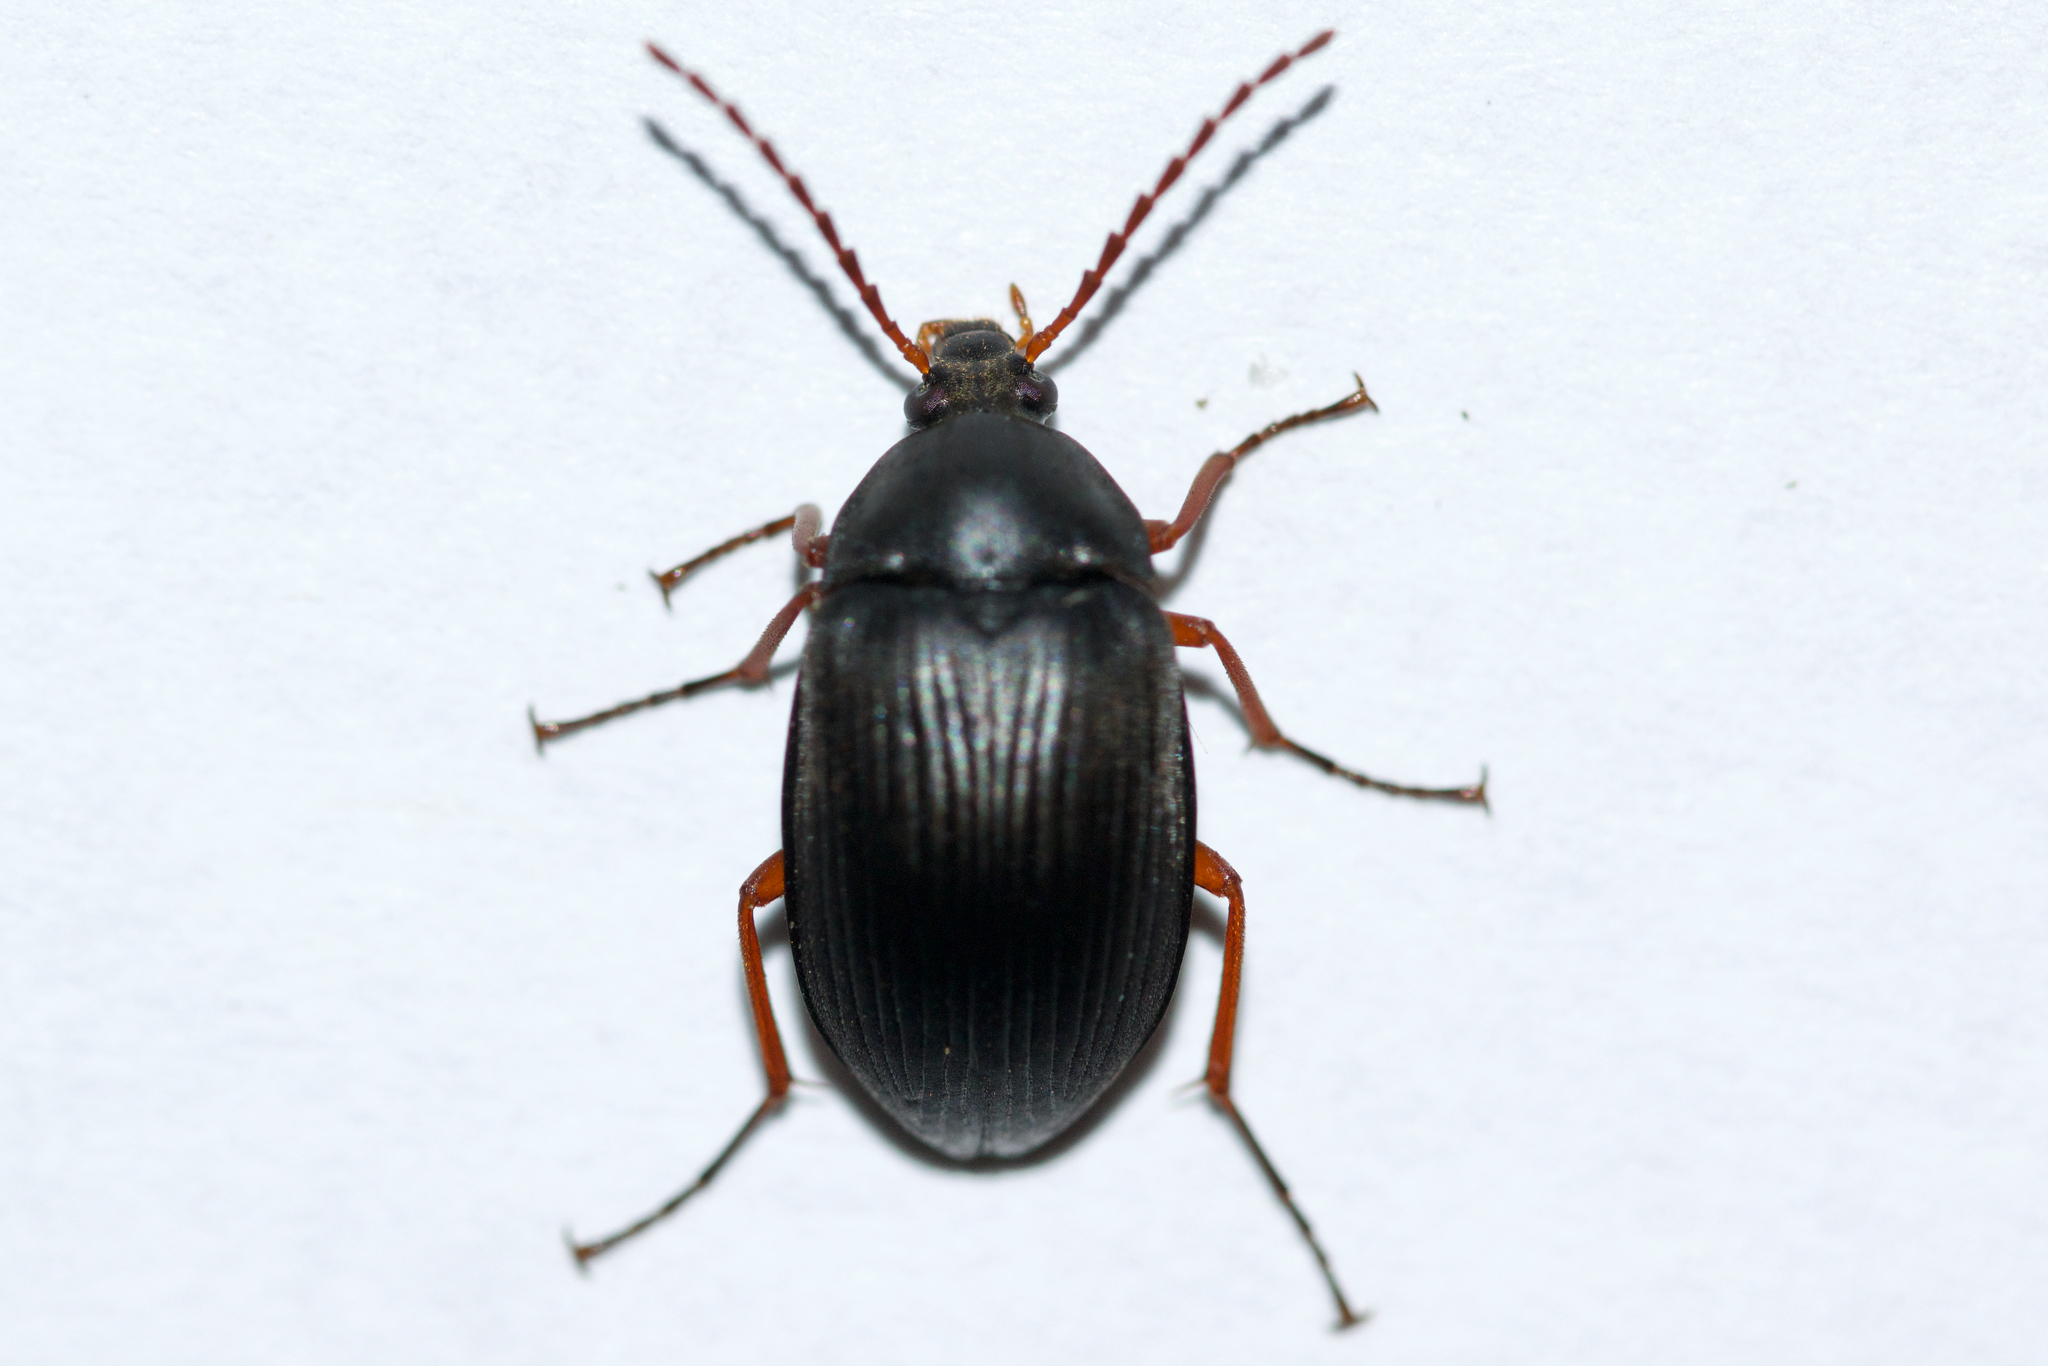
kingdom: Animalia
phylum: Arthropoda
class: Insecta
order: Coleoptera
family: Tenebrionidae
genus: Pseudocistela
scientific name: Pseudocistela brevis
